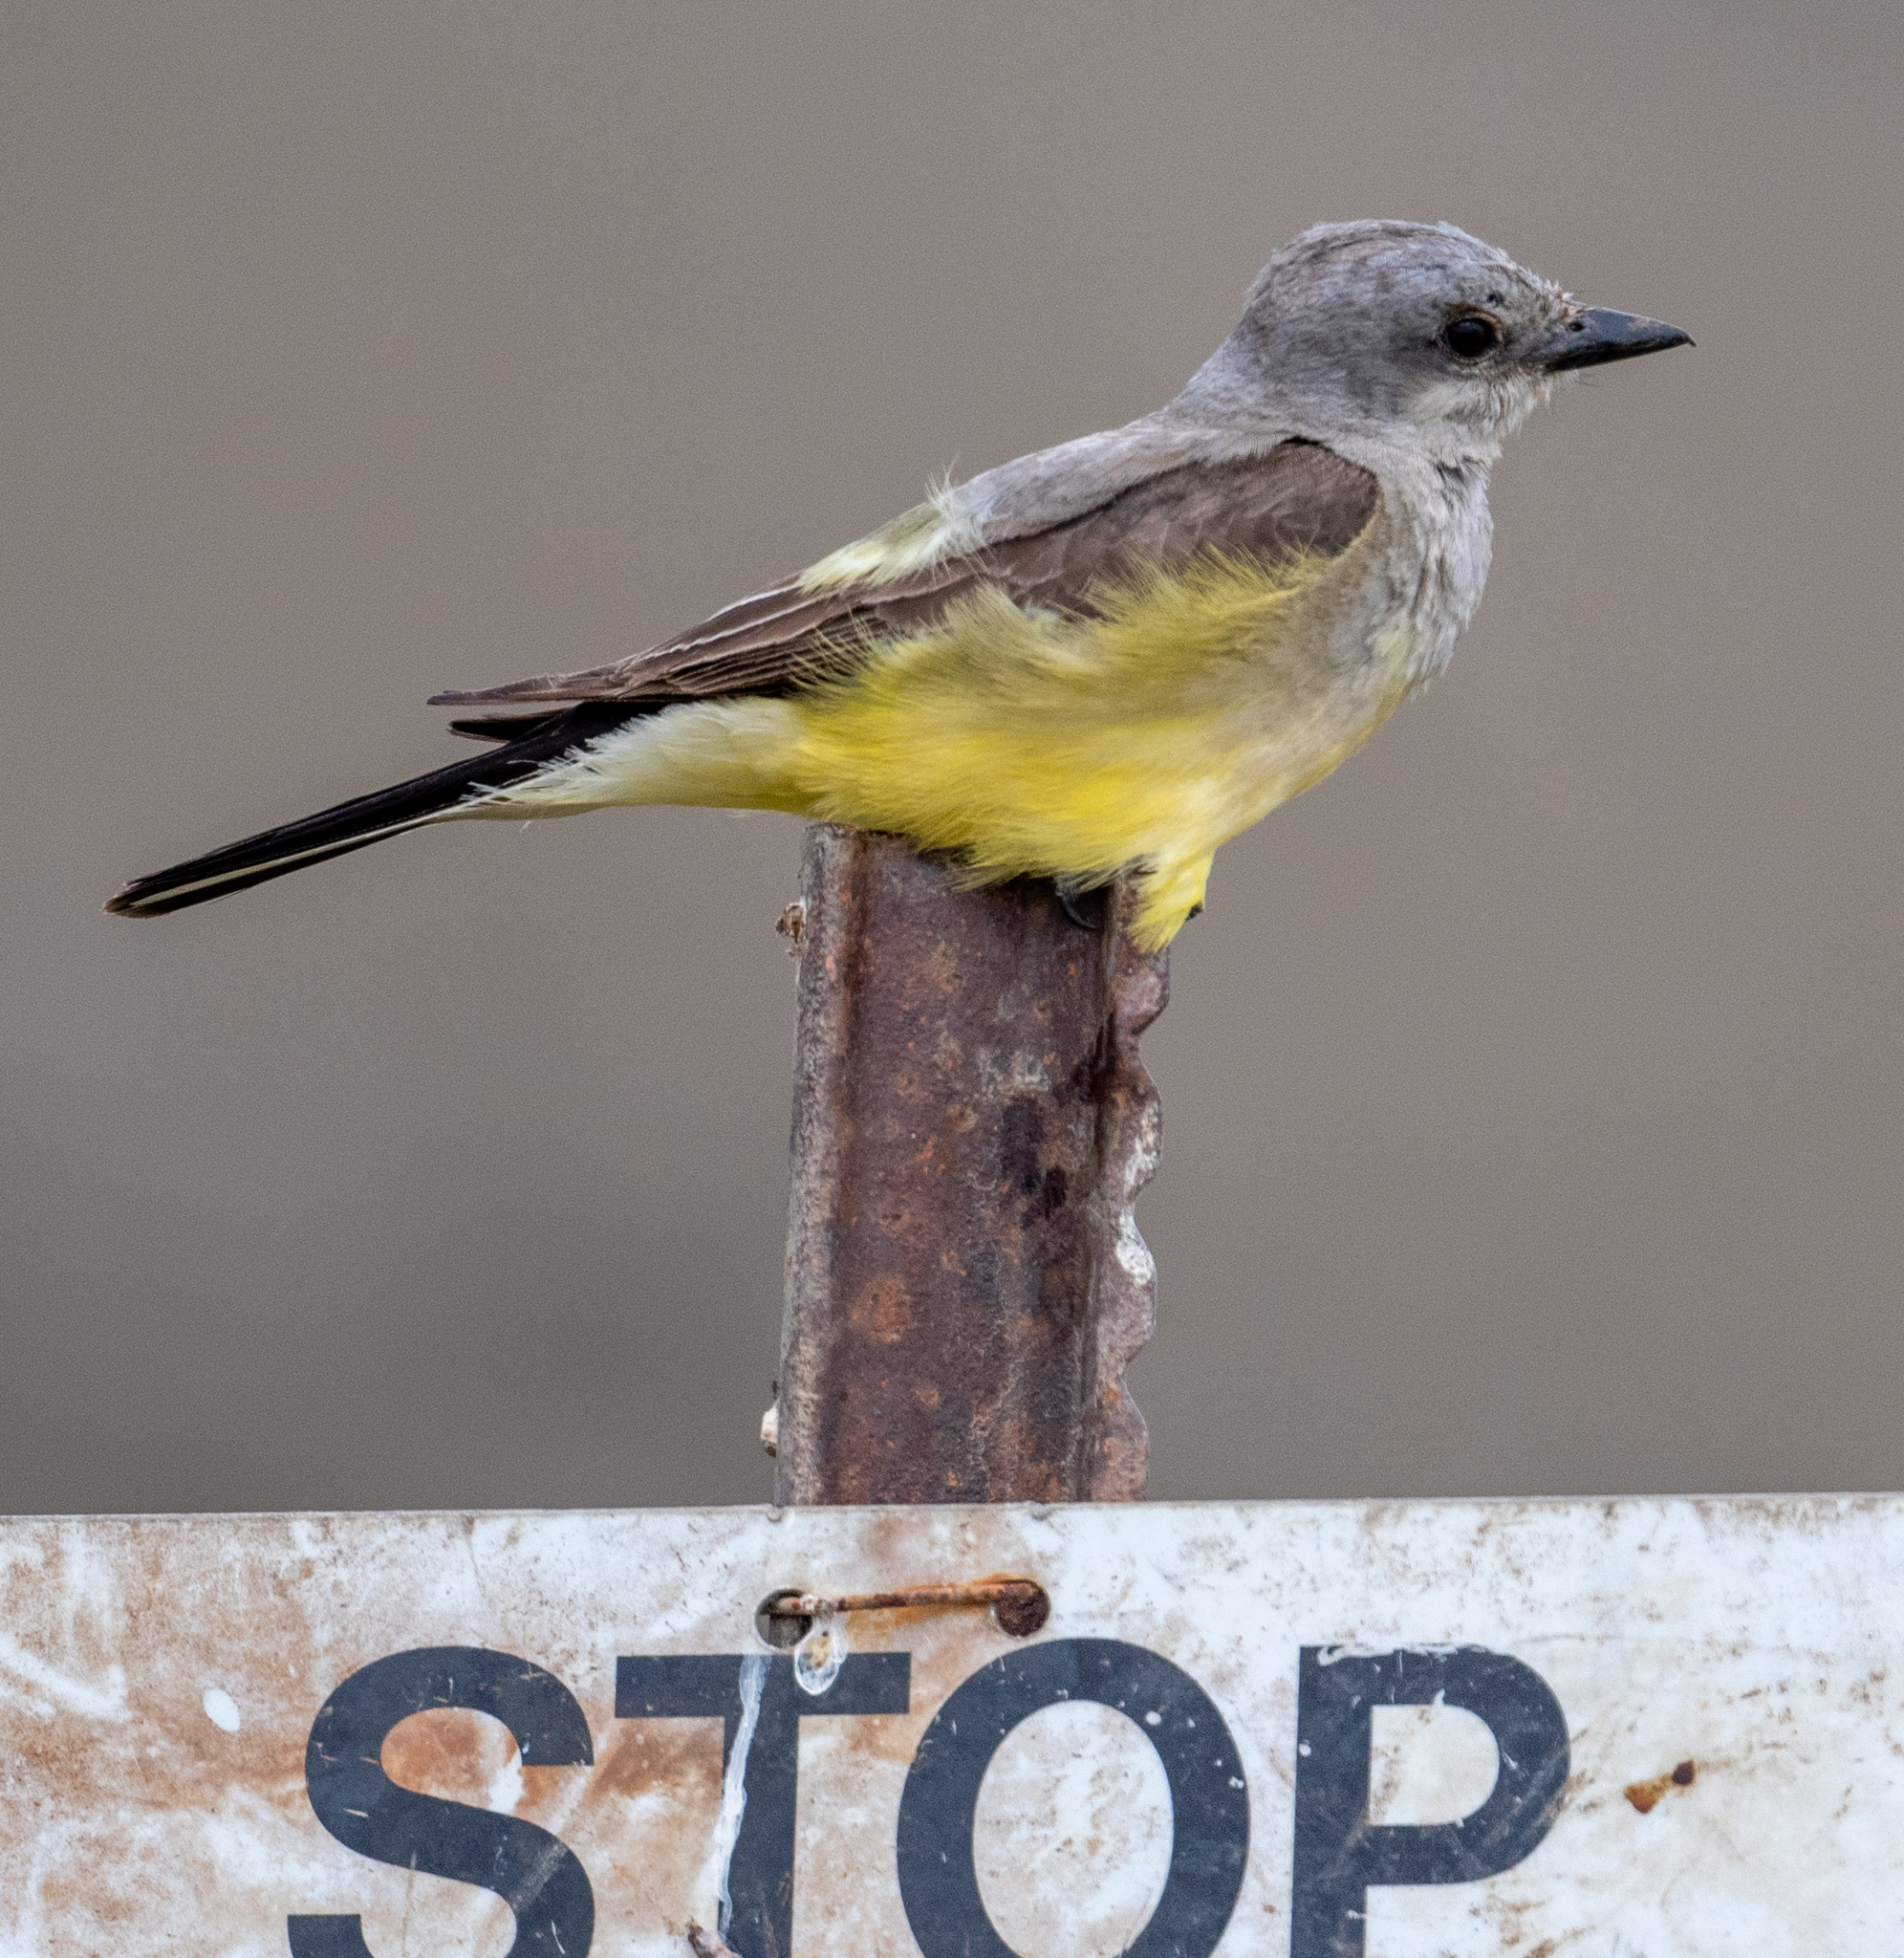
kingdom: Animalia
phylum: Chordata
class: Aves
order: Passeriformes
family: Tyrannidae
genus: Tyrannus
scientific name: Tyrannus verticalis
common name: Western kingbird
